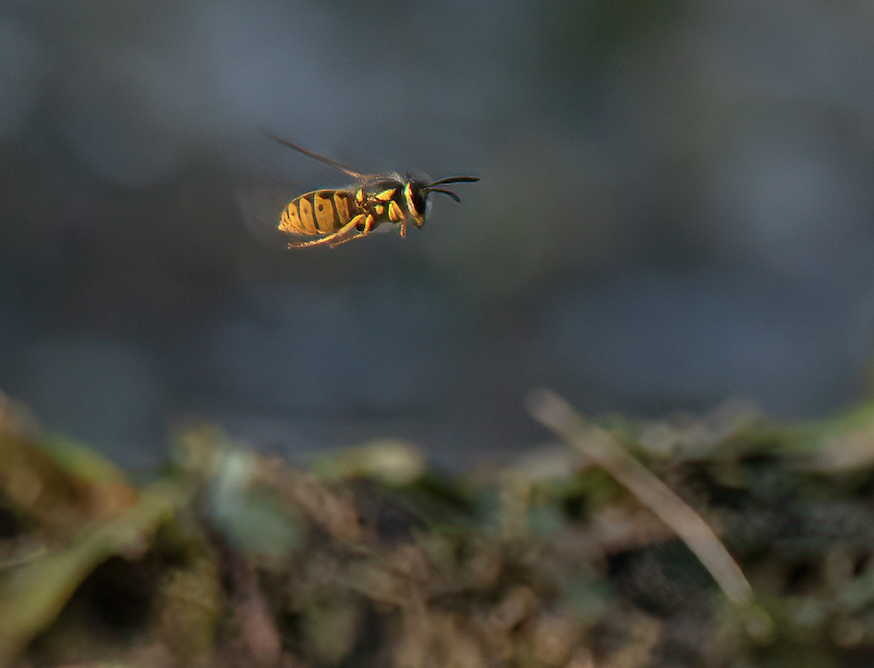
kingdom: Animalia
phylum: Arthropoda
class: Insecta
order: Hymenoptera
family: Vespidae
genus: Vespula
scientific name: Vespula germanica
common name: German wasp
